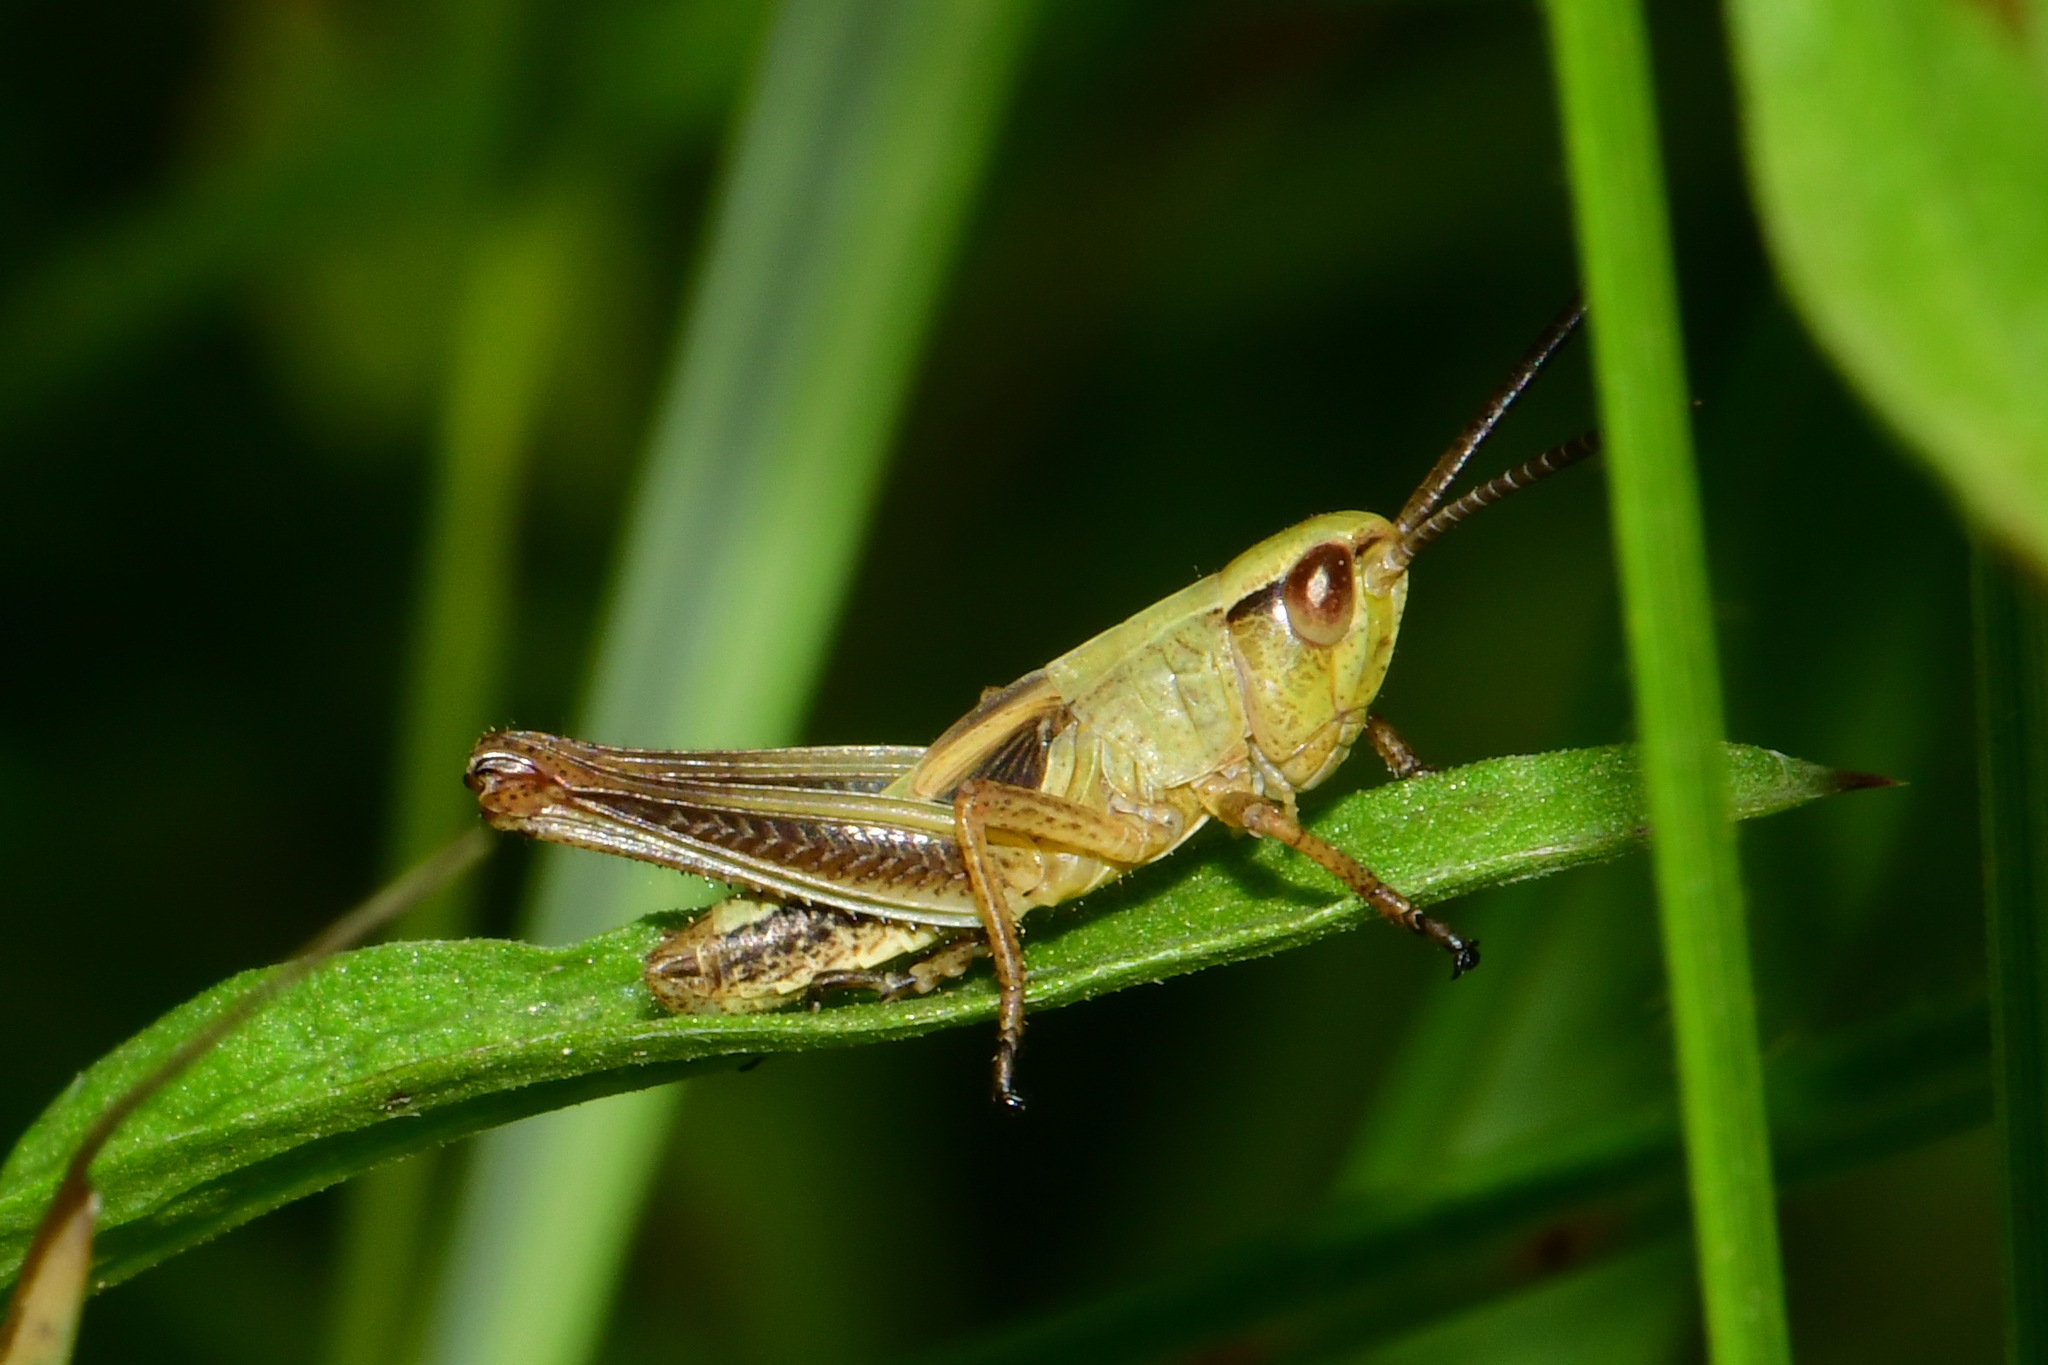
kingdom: Animalia
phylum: Arthropoda
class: Insecta
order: Orthoptera
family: Acrididae
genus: Pseudochorthippus
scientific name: Pseudochorthippus parallelus
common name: Meadow grasshopper
